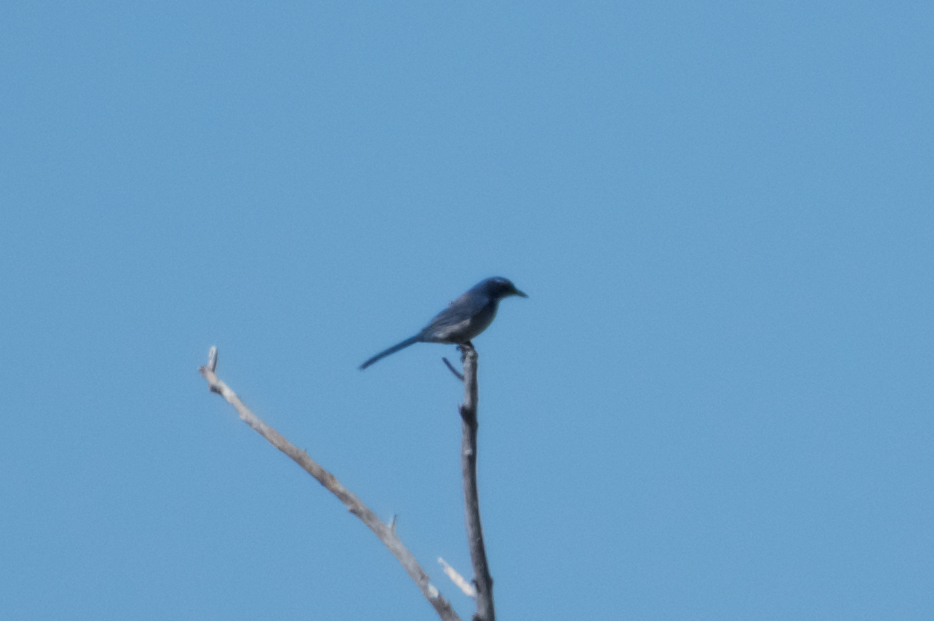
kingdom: Animalia
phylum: Chordata
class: Aves
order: Passeriformes
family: Corvidae
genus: Aphelocoma
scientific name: Aphelocoma californica
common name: California scrub-jay
